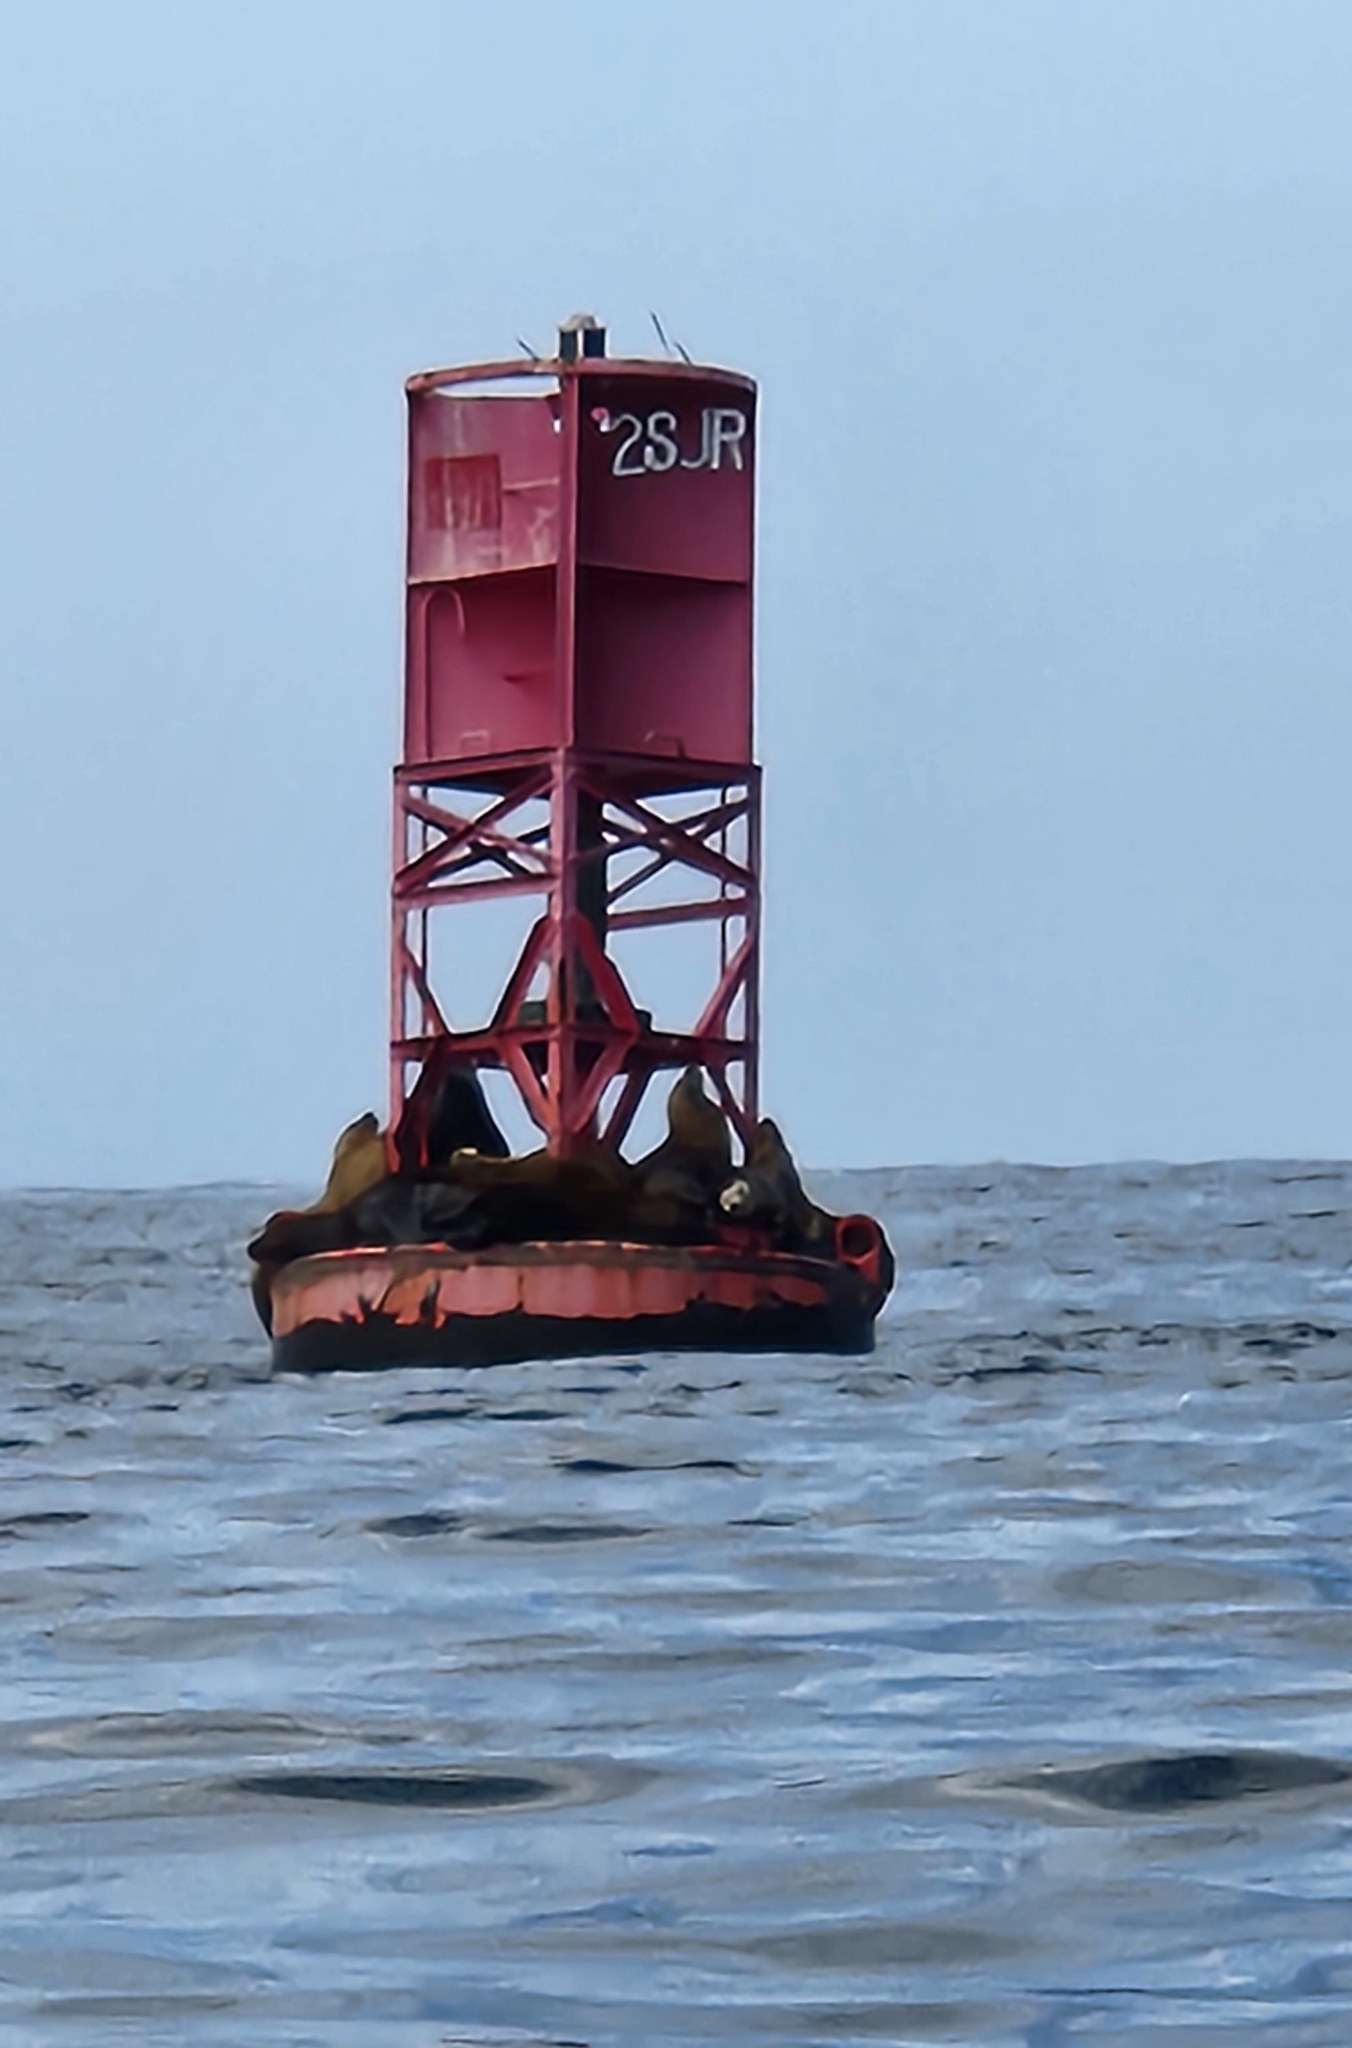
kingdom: Animalia
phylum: Chordata
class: Mammalia
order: Carnivora
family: Otariidae
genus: Zalophus
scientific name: Zalophus californianus
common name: California sea lion
